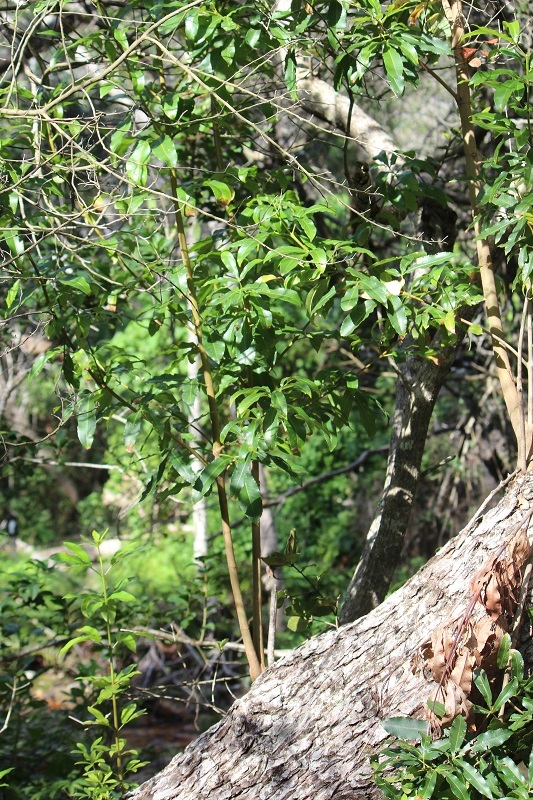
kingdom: Plantae
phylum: Tracheophyta
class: Magnoliopsida
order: Oxalidales
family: Cunoniaceae
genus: Platylophus
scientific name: Platylophus trifoliatus
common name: White alder
